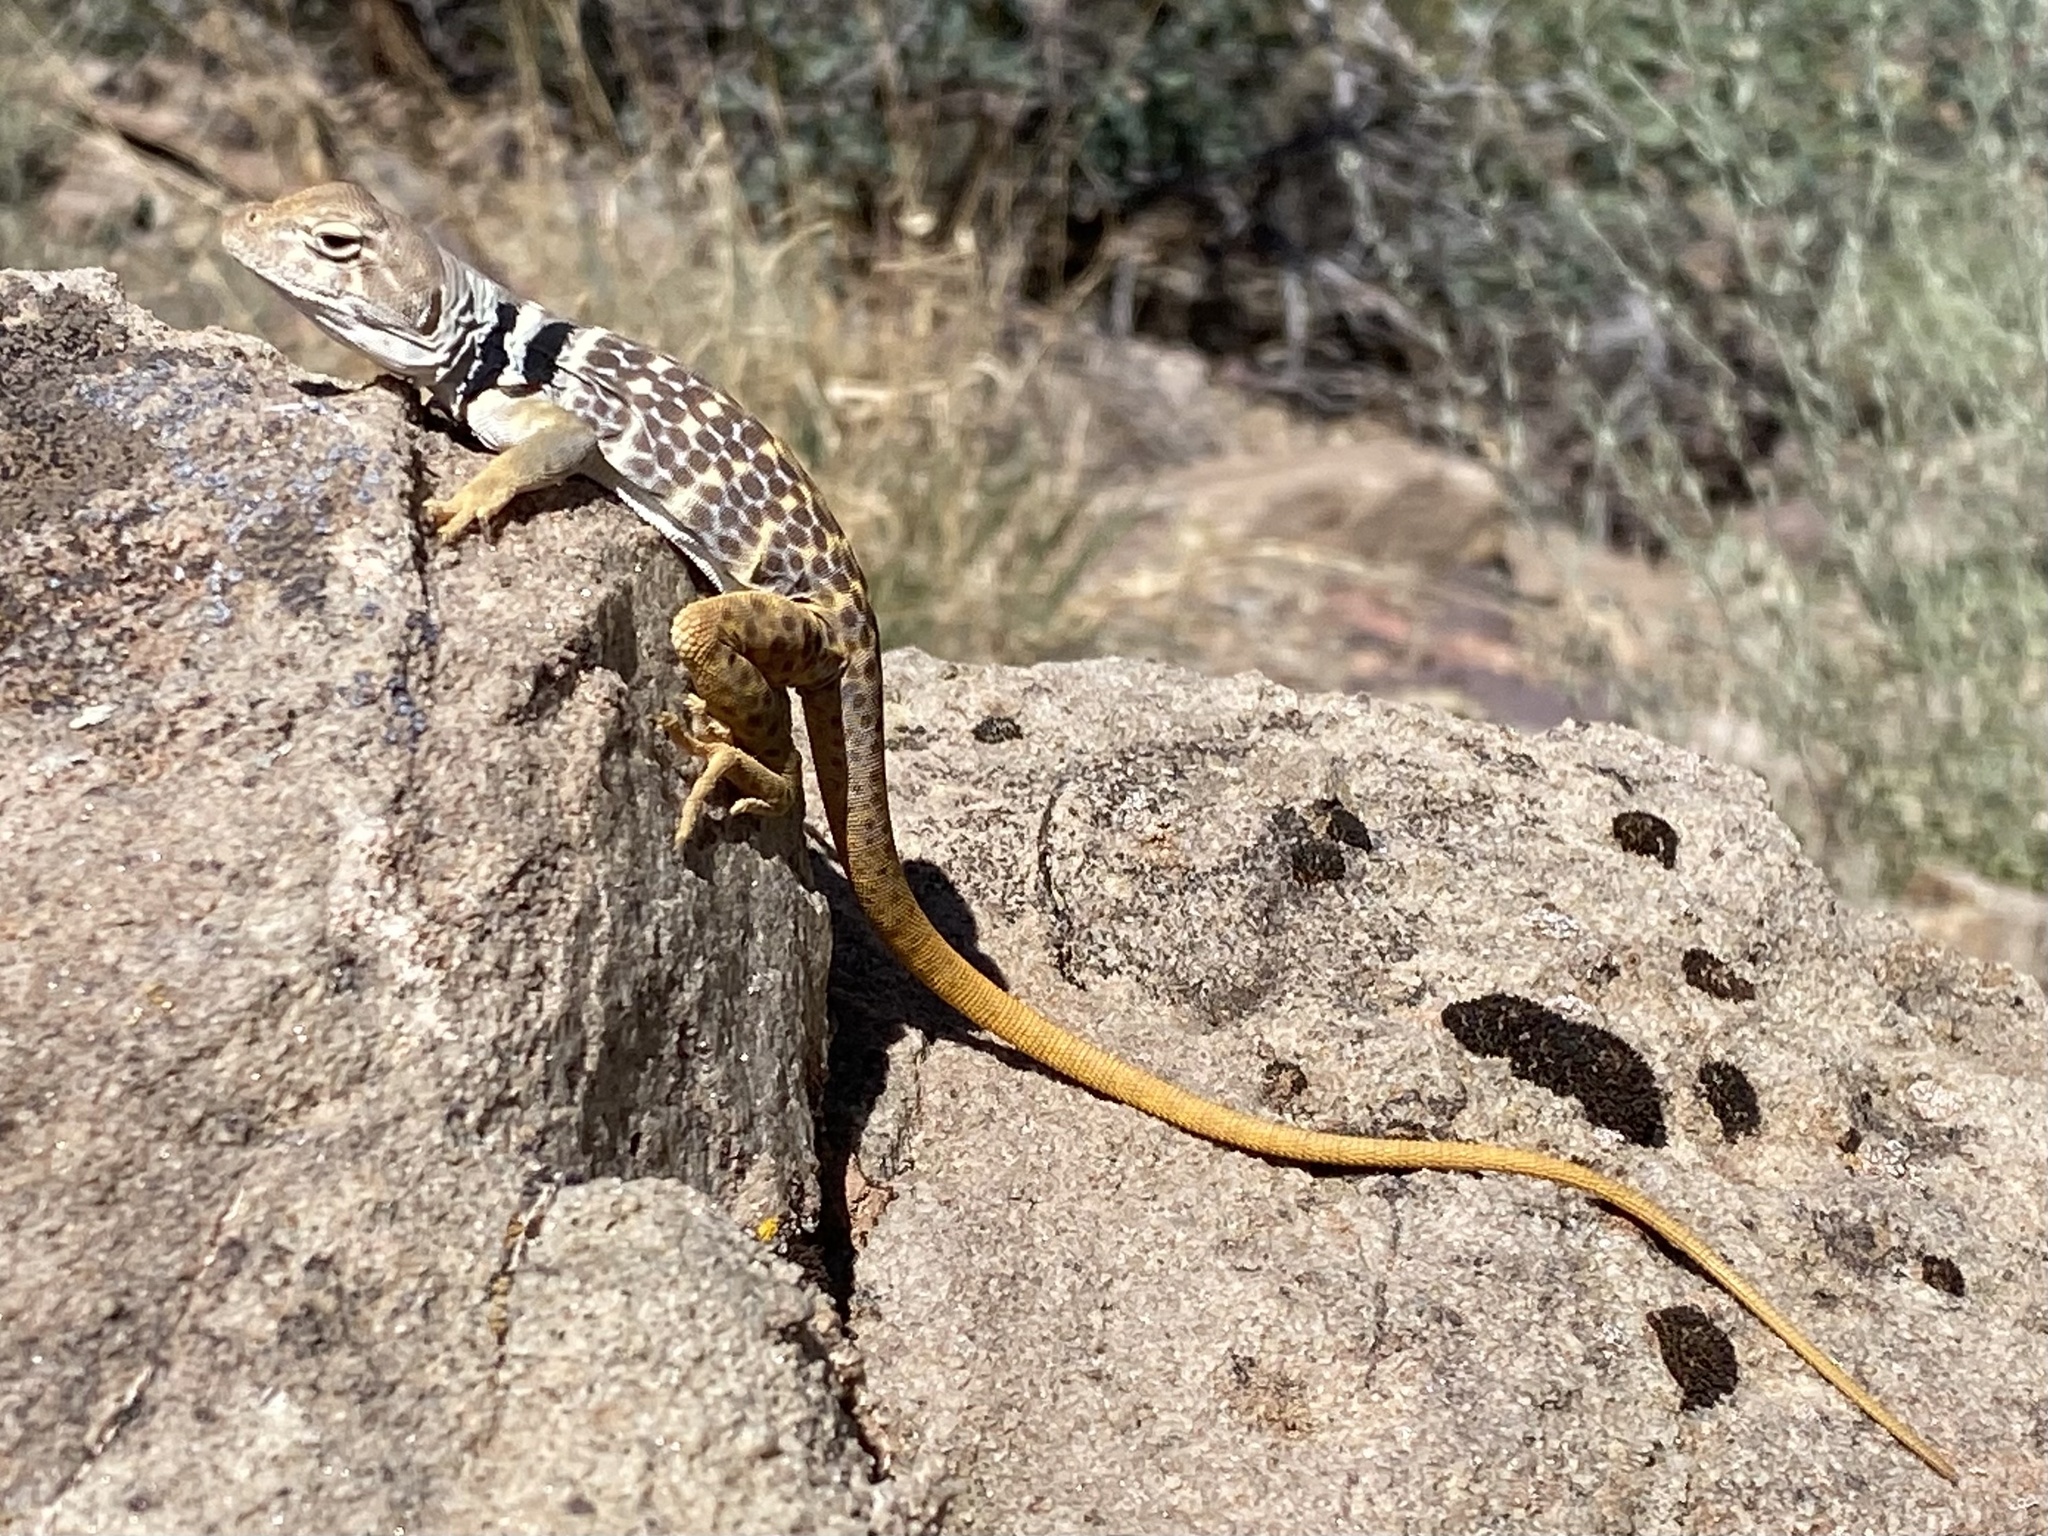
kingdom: Animalia
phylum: Chordata
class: Squamata
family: Crotaphytidae
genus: Crotaphytus
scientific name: Crotaphytus bicinctores
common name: Mojave black-collared lizard
